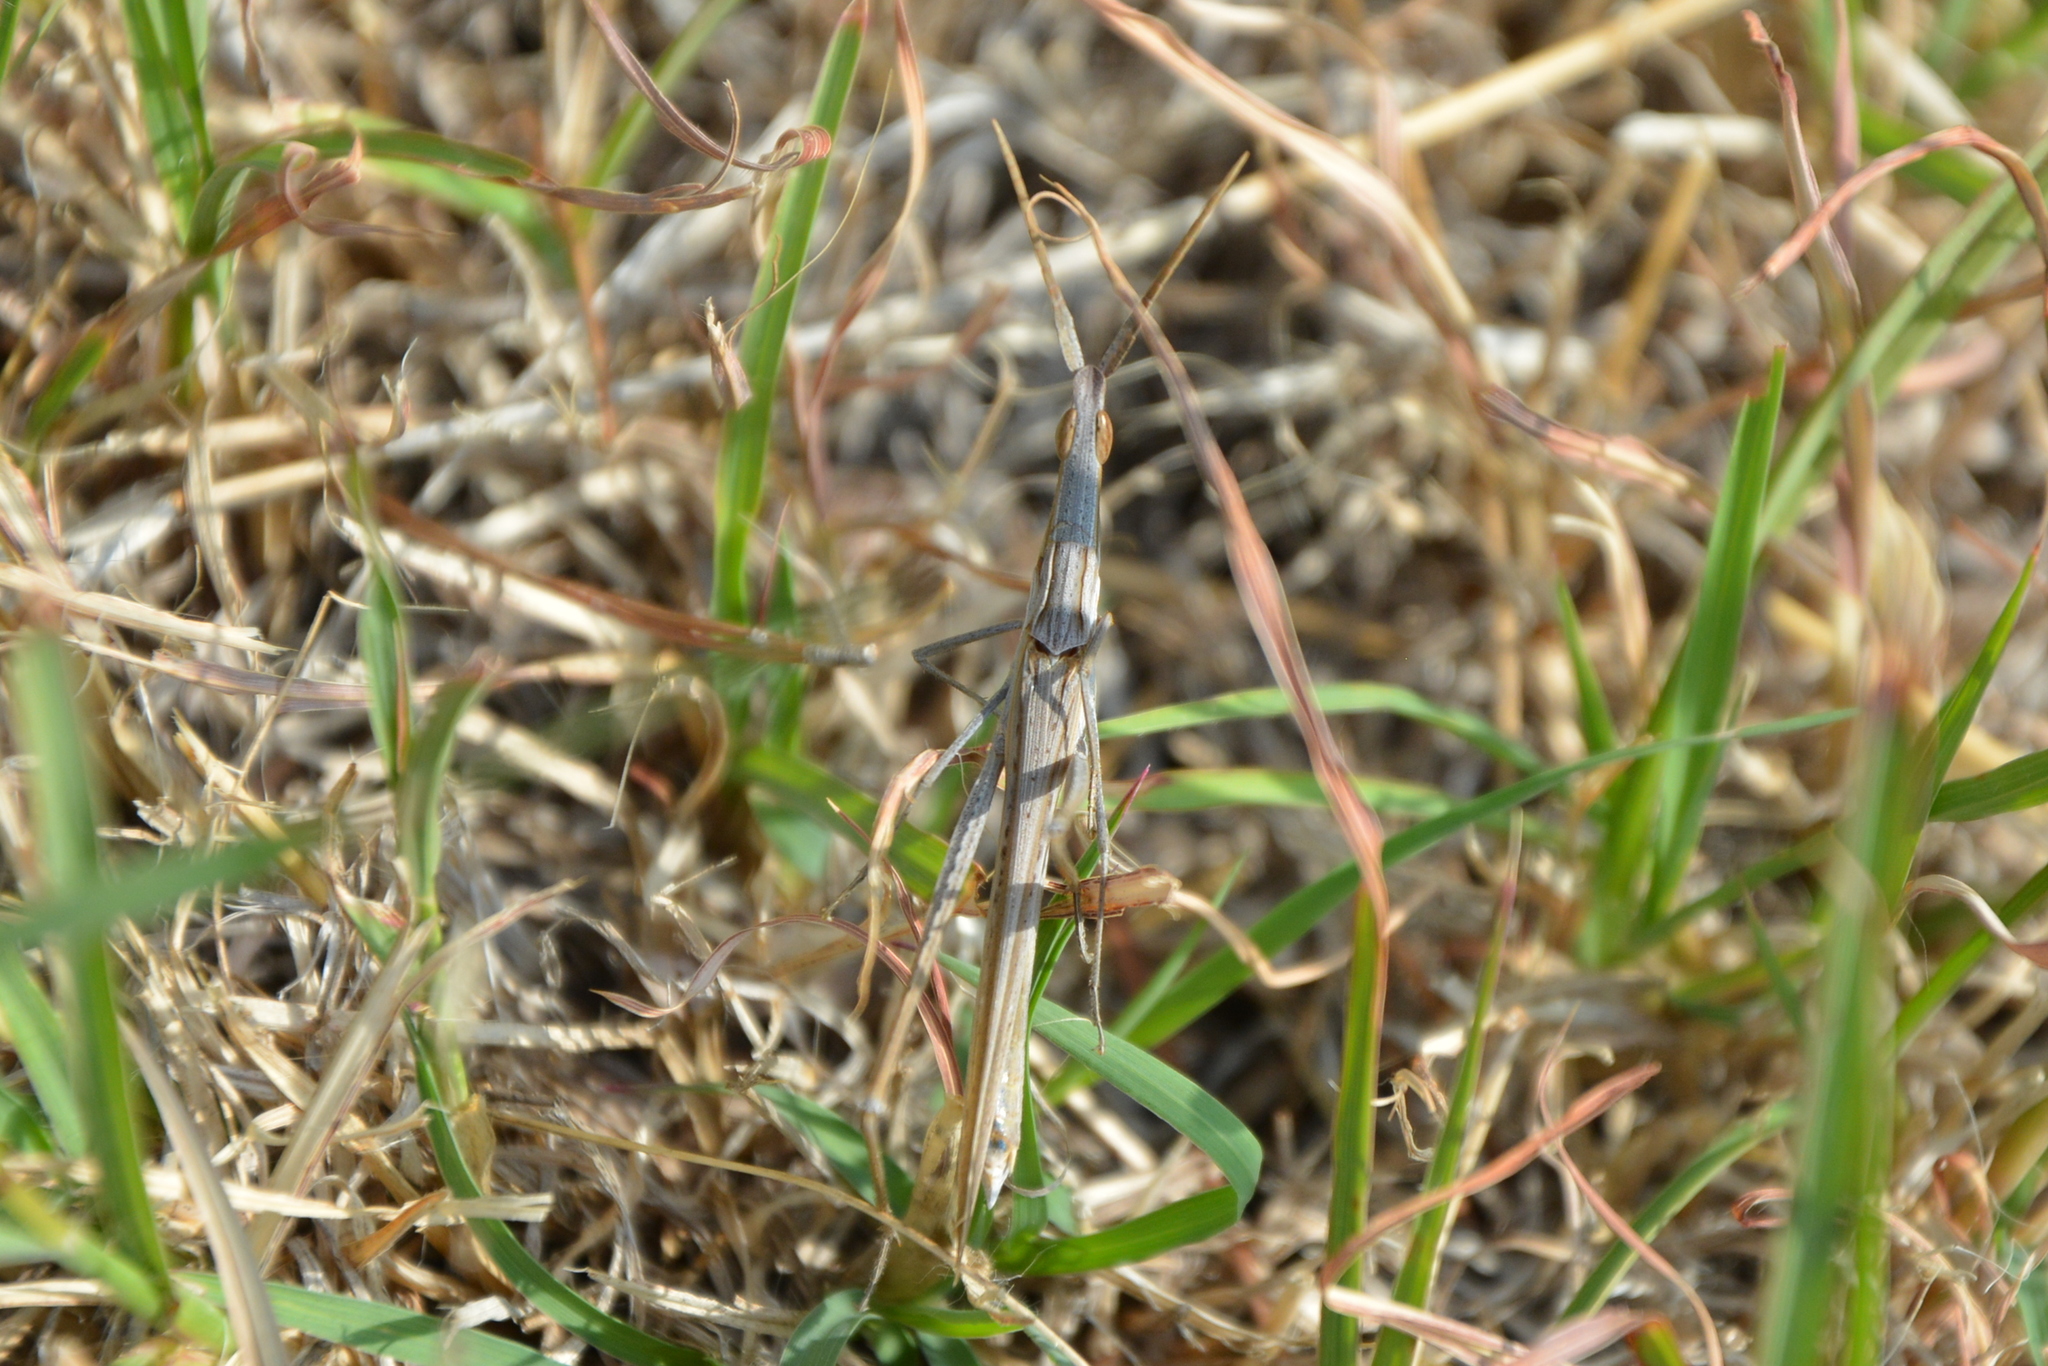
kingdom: Animalia
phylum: Arthropoda
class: Insecta
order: Orthoptera
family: Acrididae
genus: Acrida
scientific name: Acrida ungarica
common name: Common cone-headed grasshopper
